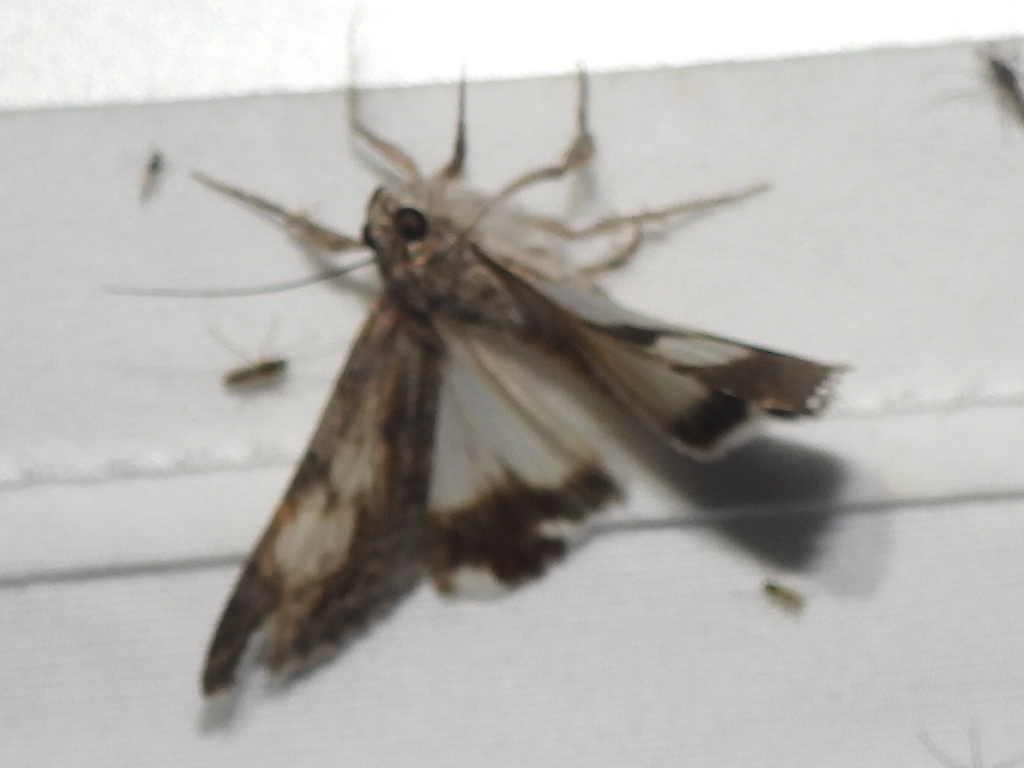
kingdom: Animalia
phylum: Arthropoda
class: Insecta
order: Lepidoptera
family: Erebidae
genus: Melipotis
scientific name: Melipotis jucunda
